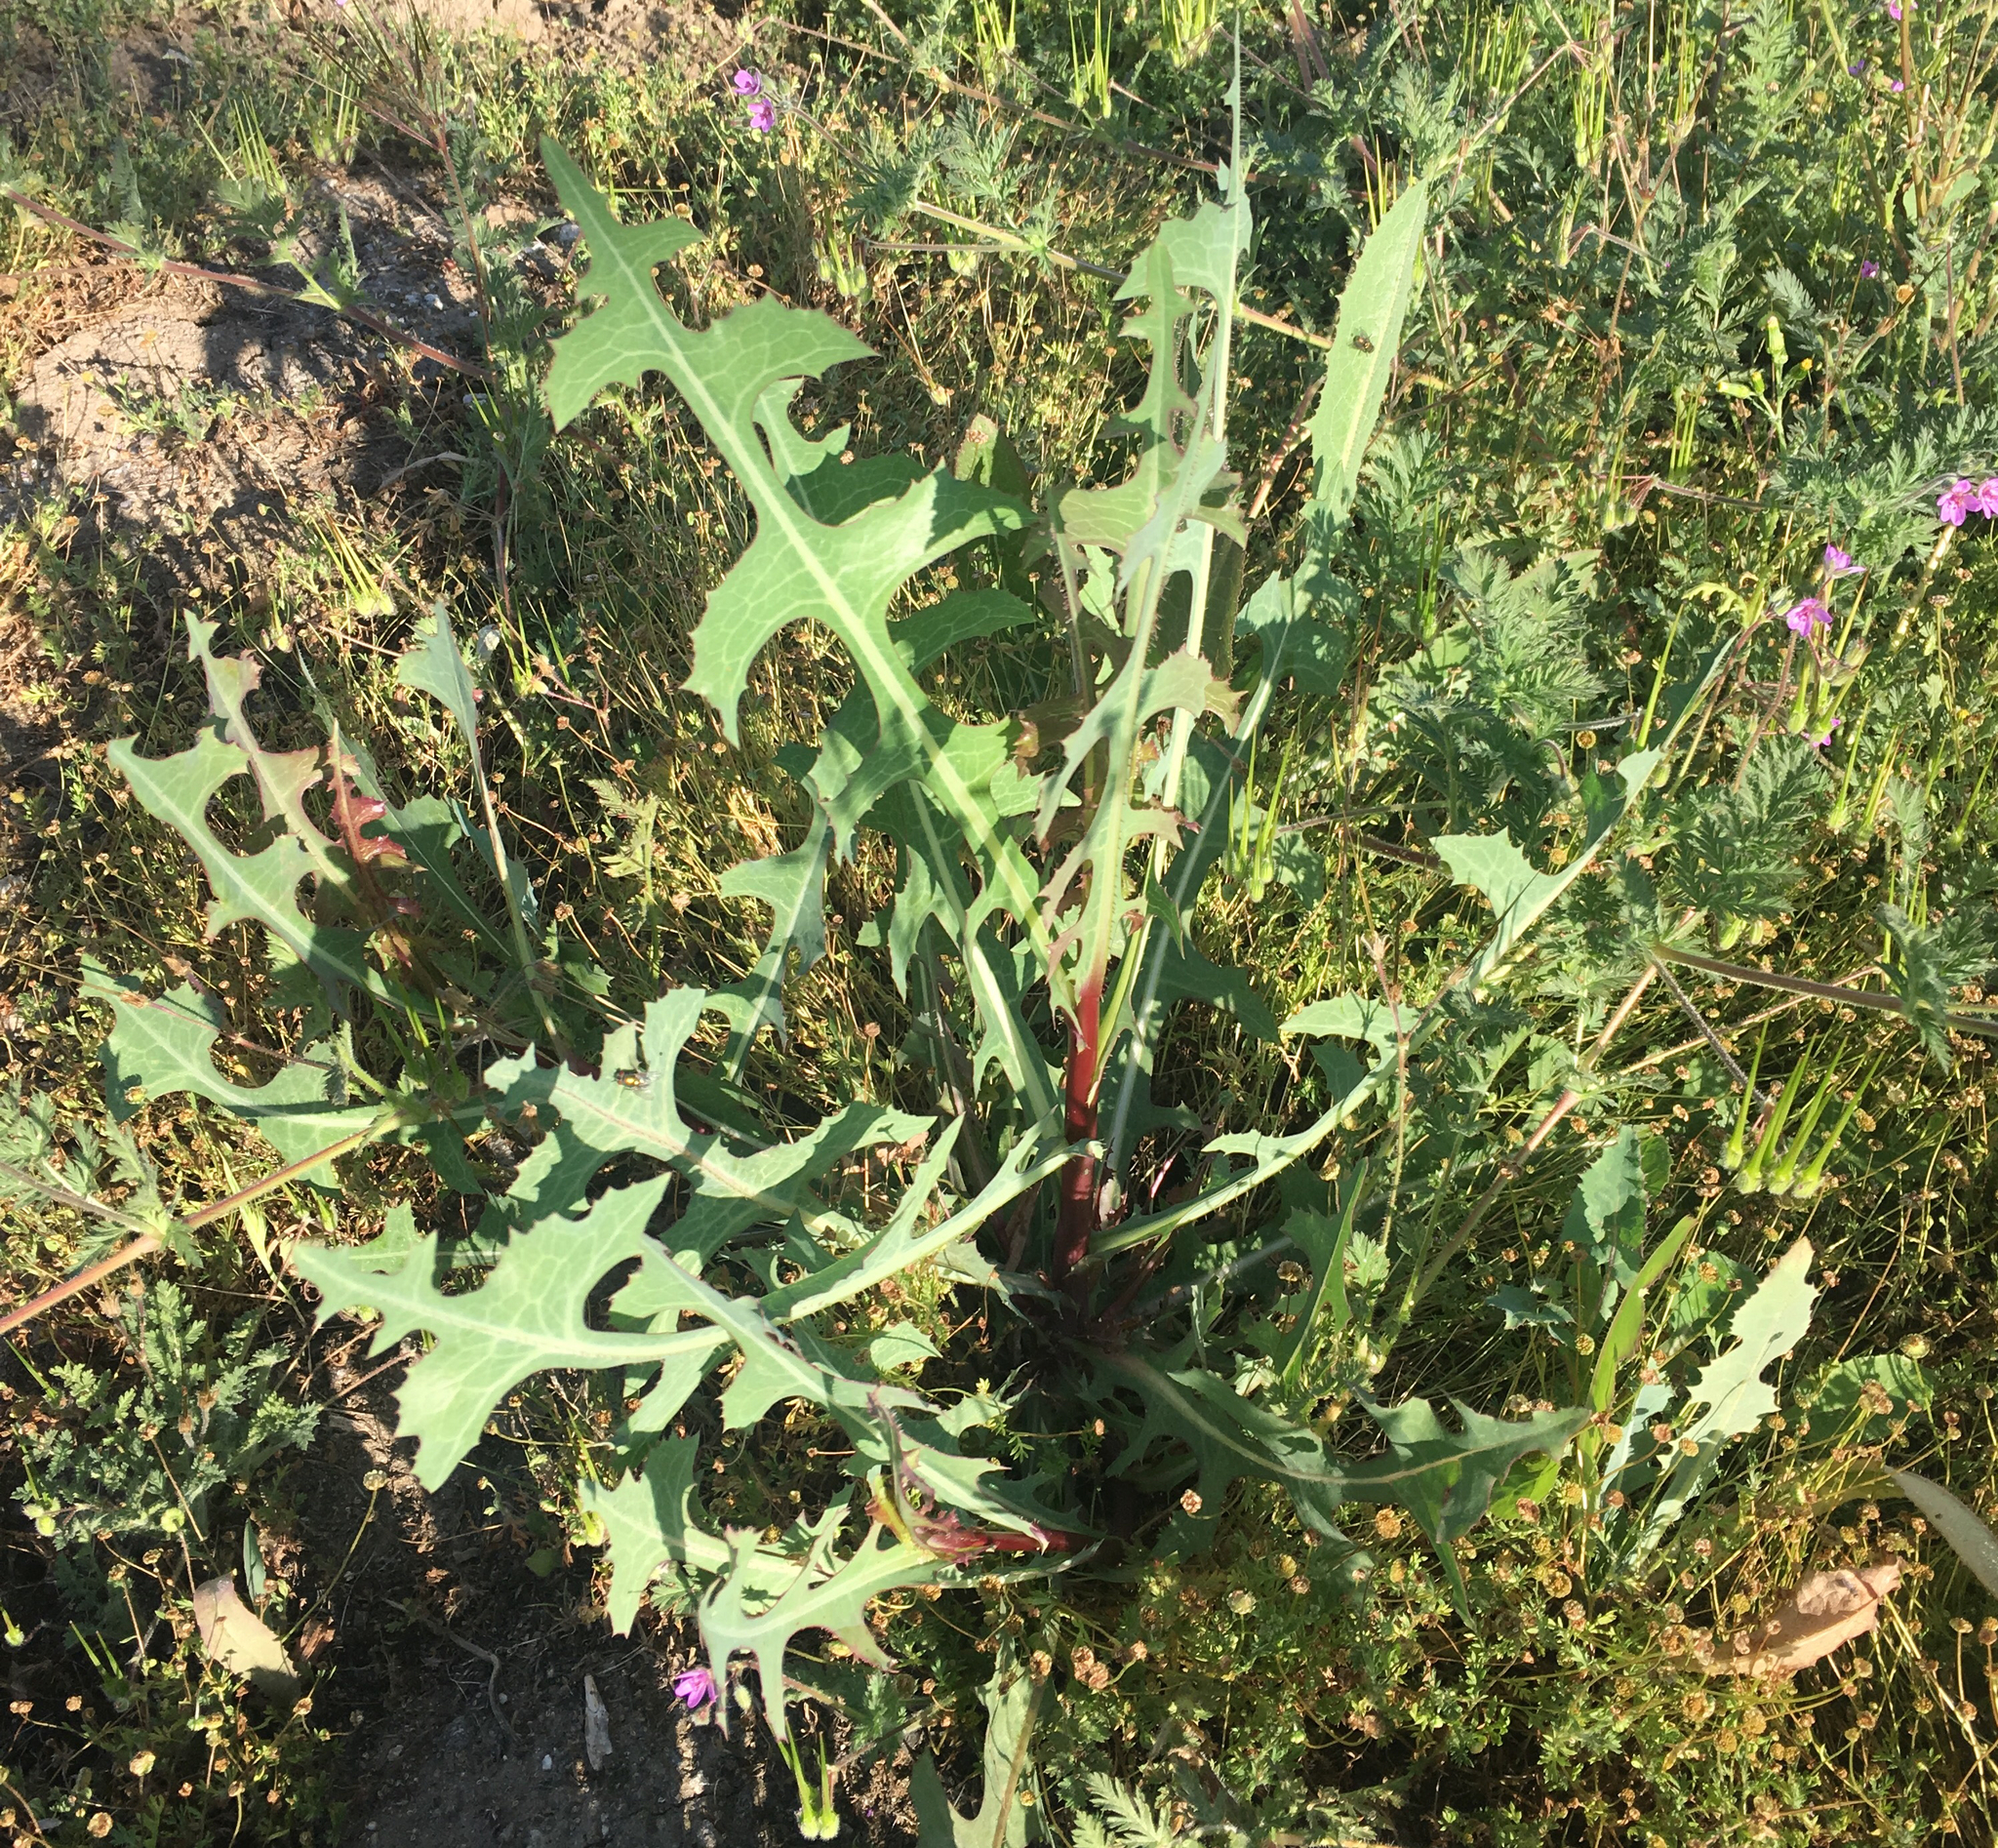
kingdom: Plantae
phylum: Tracheophyta
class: Magnoliopsida
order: Asterales
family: Asteraceae
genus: Lactuca
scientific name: Lactuca serriola
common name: Prickly lettuce
